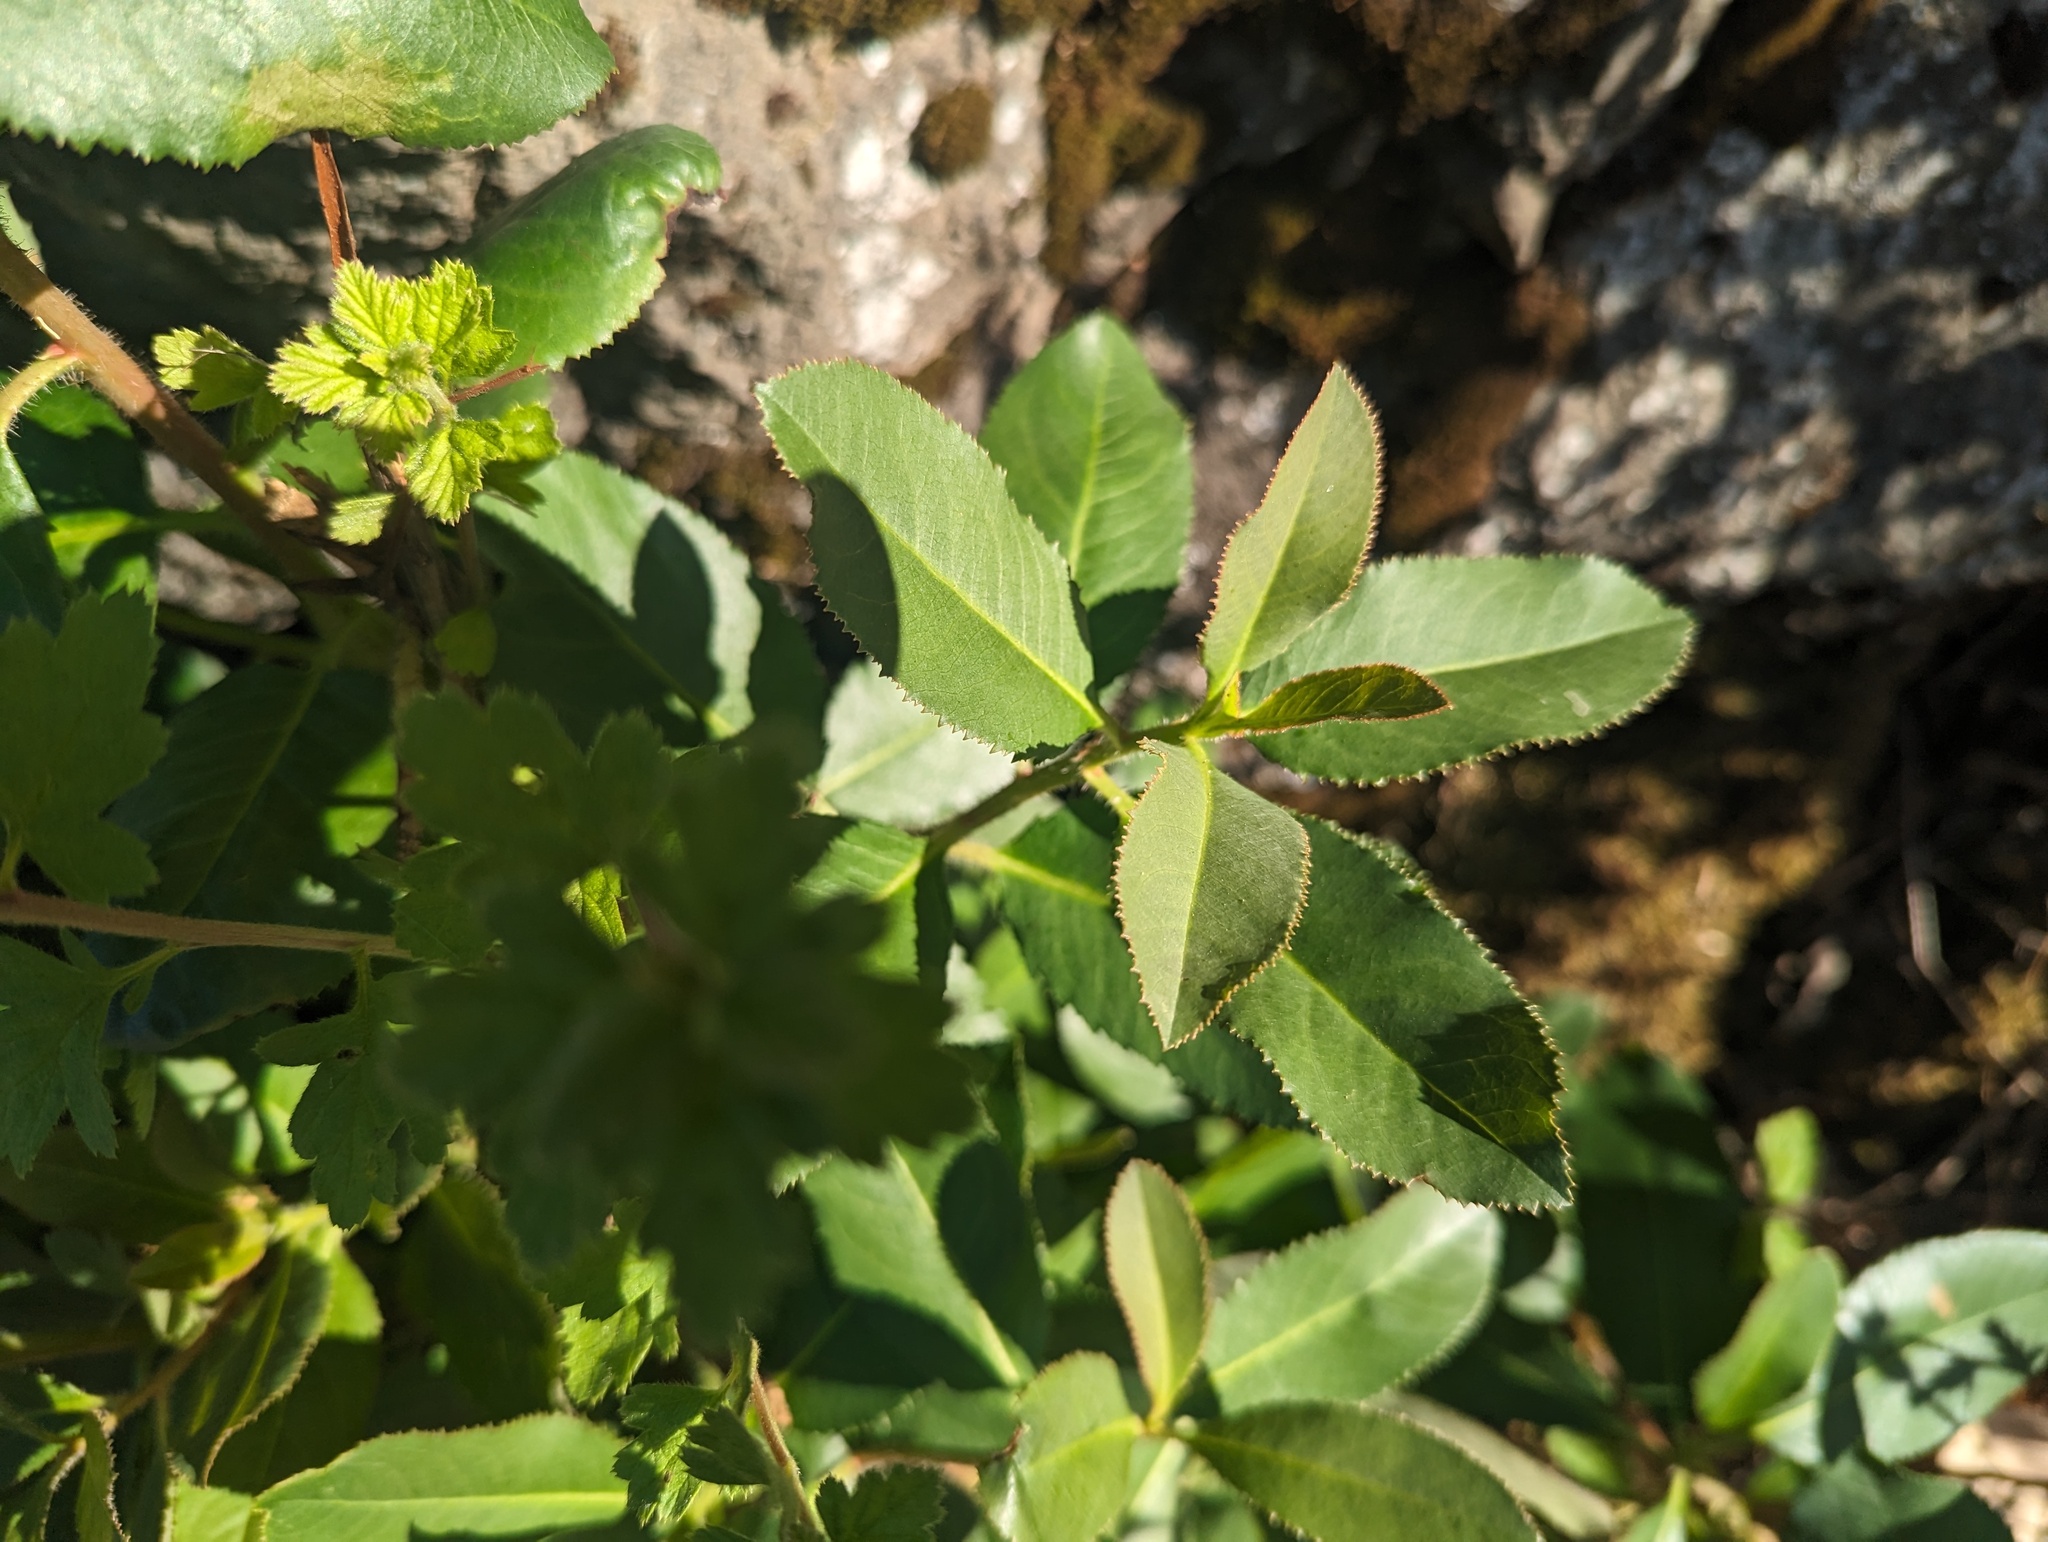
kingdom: Plantae
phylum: Tracheophyta
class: Magnoliopsida
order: Ericales
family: Ericaceae
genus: Arbutus
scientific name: Arbutus menziesii
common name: Pacific madrone
